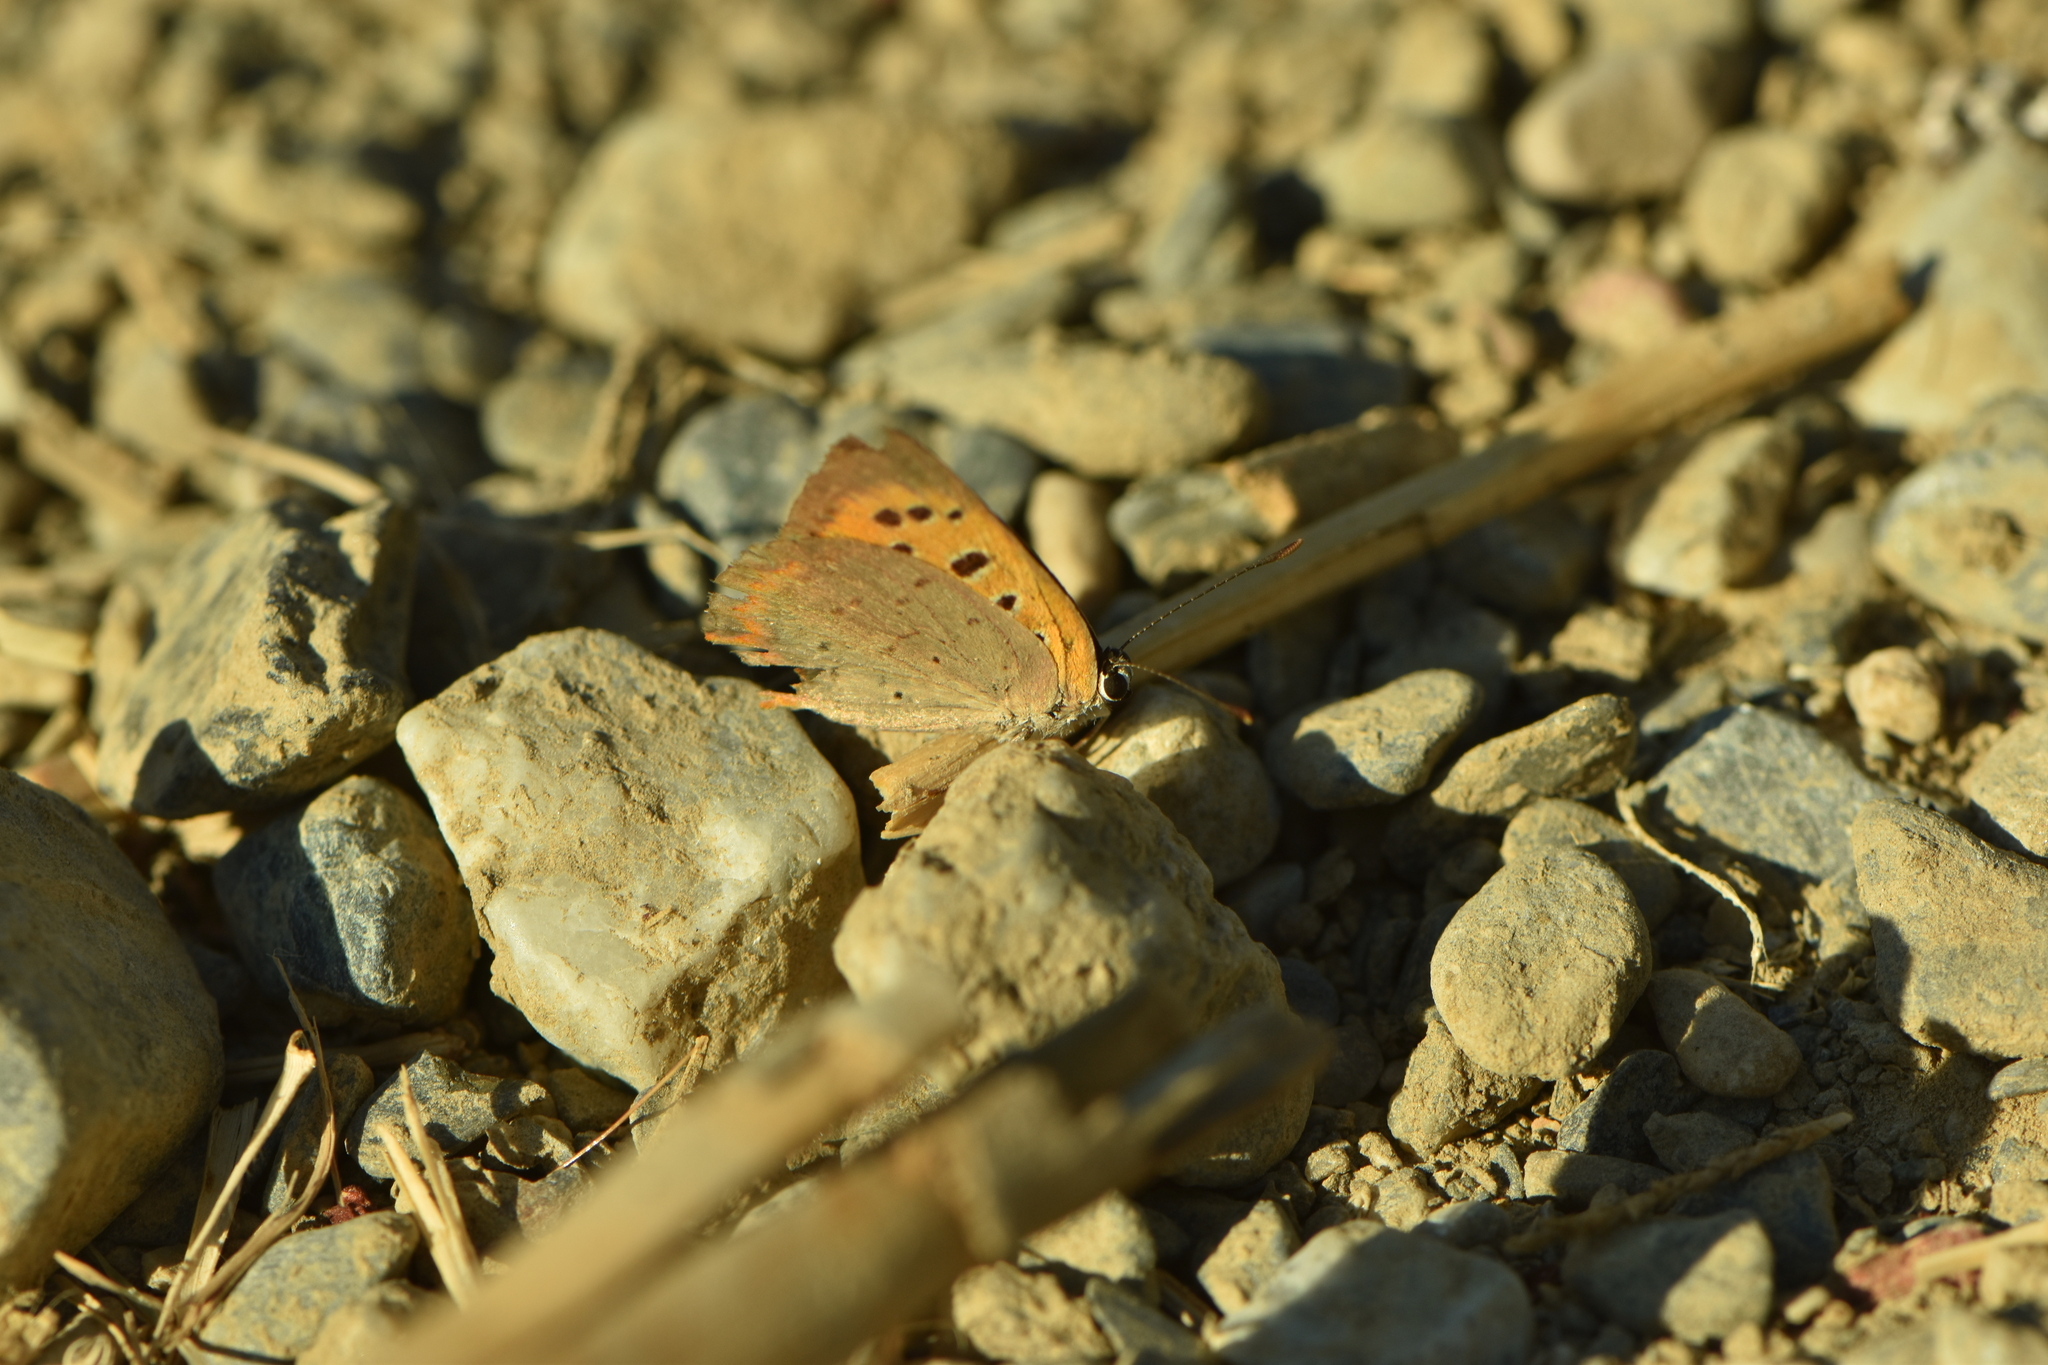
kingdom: Animalia
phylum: Arthropoda
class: Insecta
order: Lepidoptera
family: Lycaenidae
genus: Lycaena
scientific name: Lycaena phlaeas
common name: Small copper
